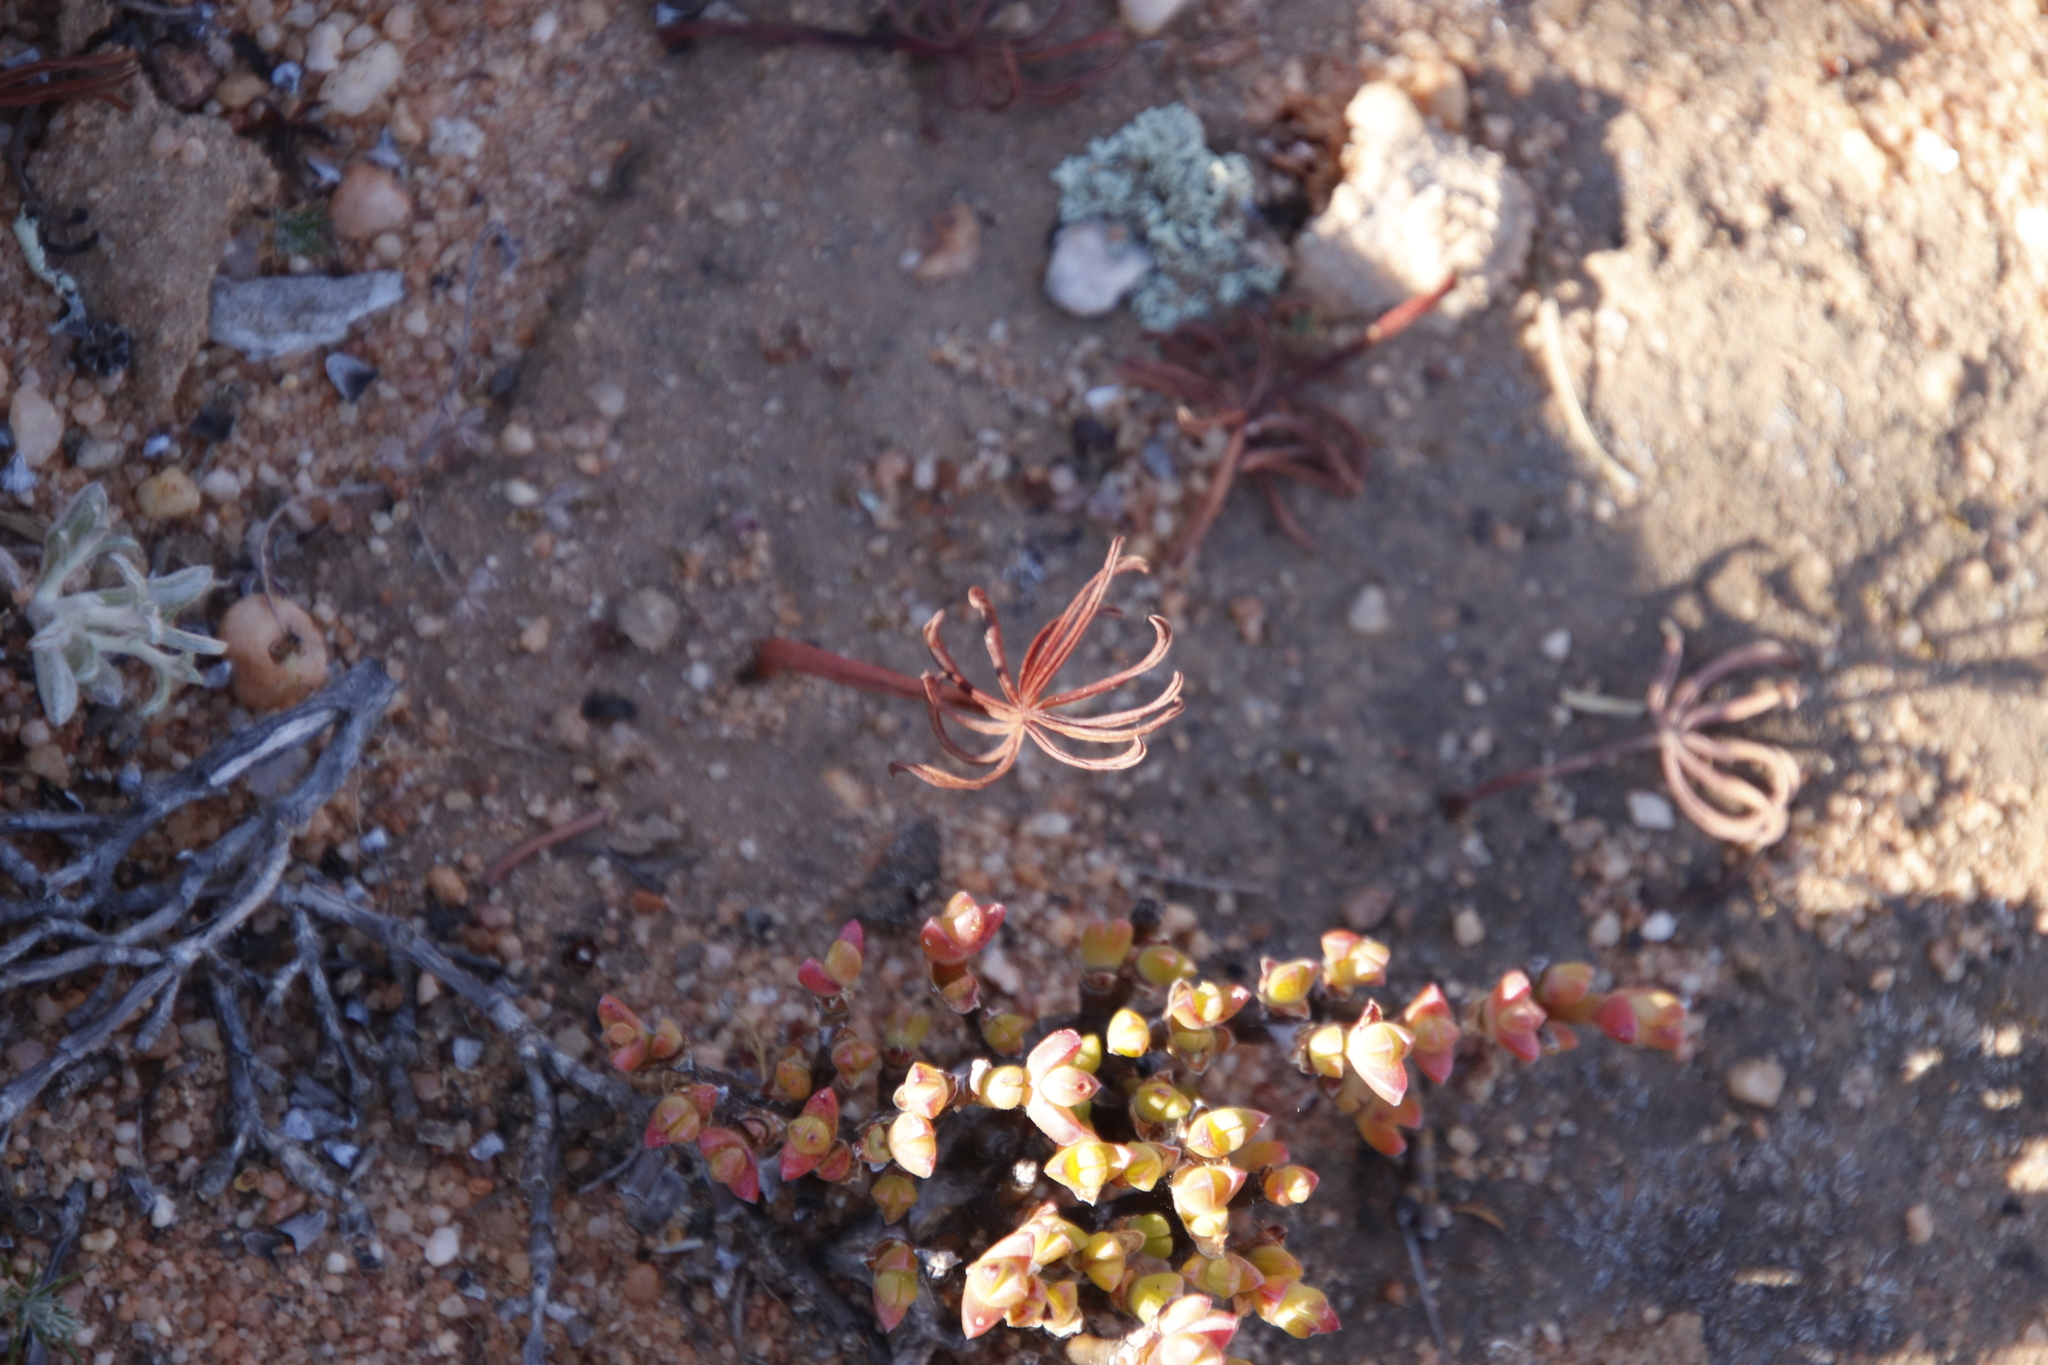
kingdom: Plantae
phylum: Tracheophyta
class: Magnoliopsida
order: Oxalidales
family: Oxalidaceae
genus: Oxalis
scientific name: Oxalis flava
